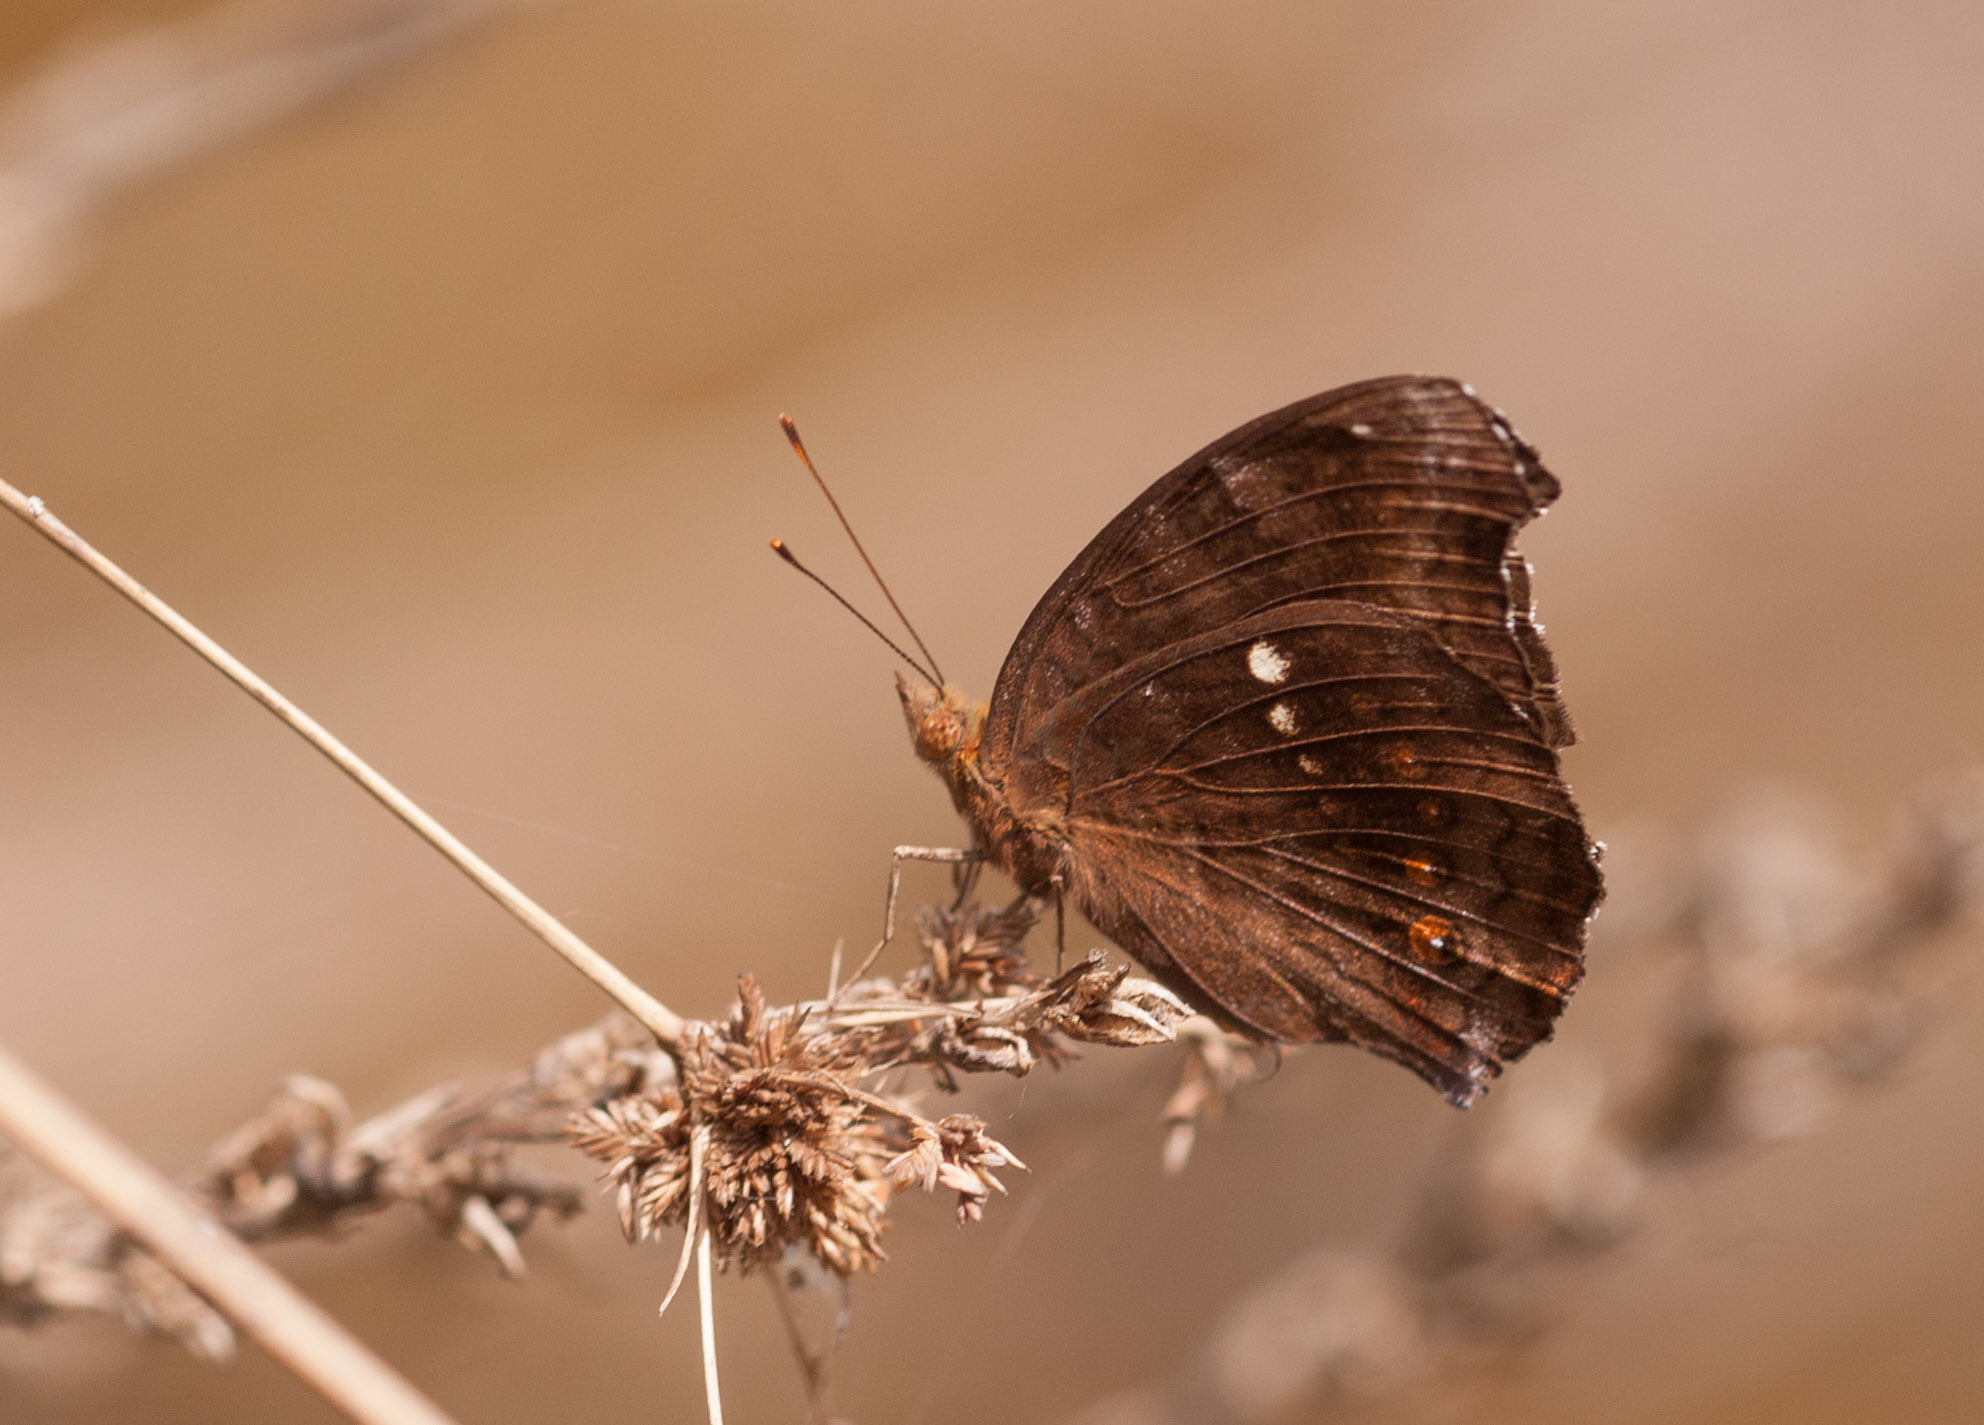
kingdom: Animalia
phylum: Arthropoda
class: Insecta
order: Lepidoptera
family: Nymphalidae
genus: Junonia
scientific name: Junonia hedonia
